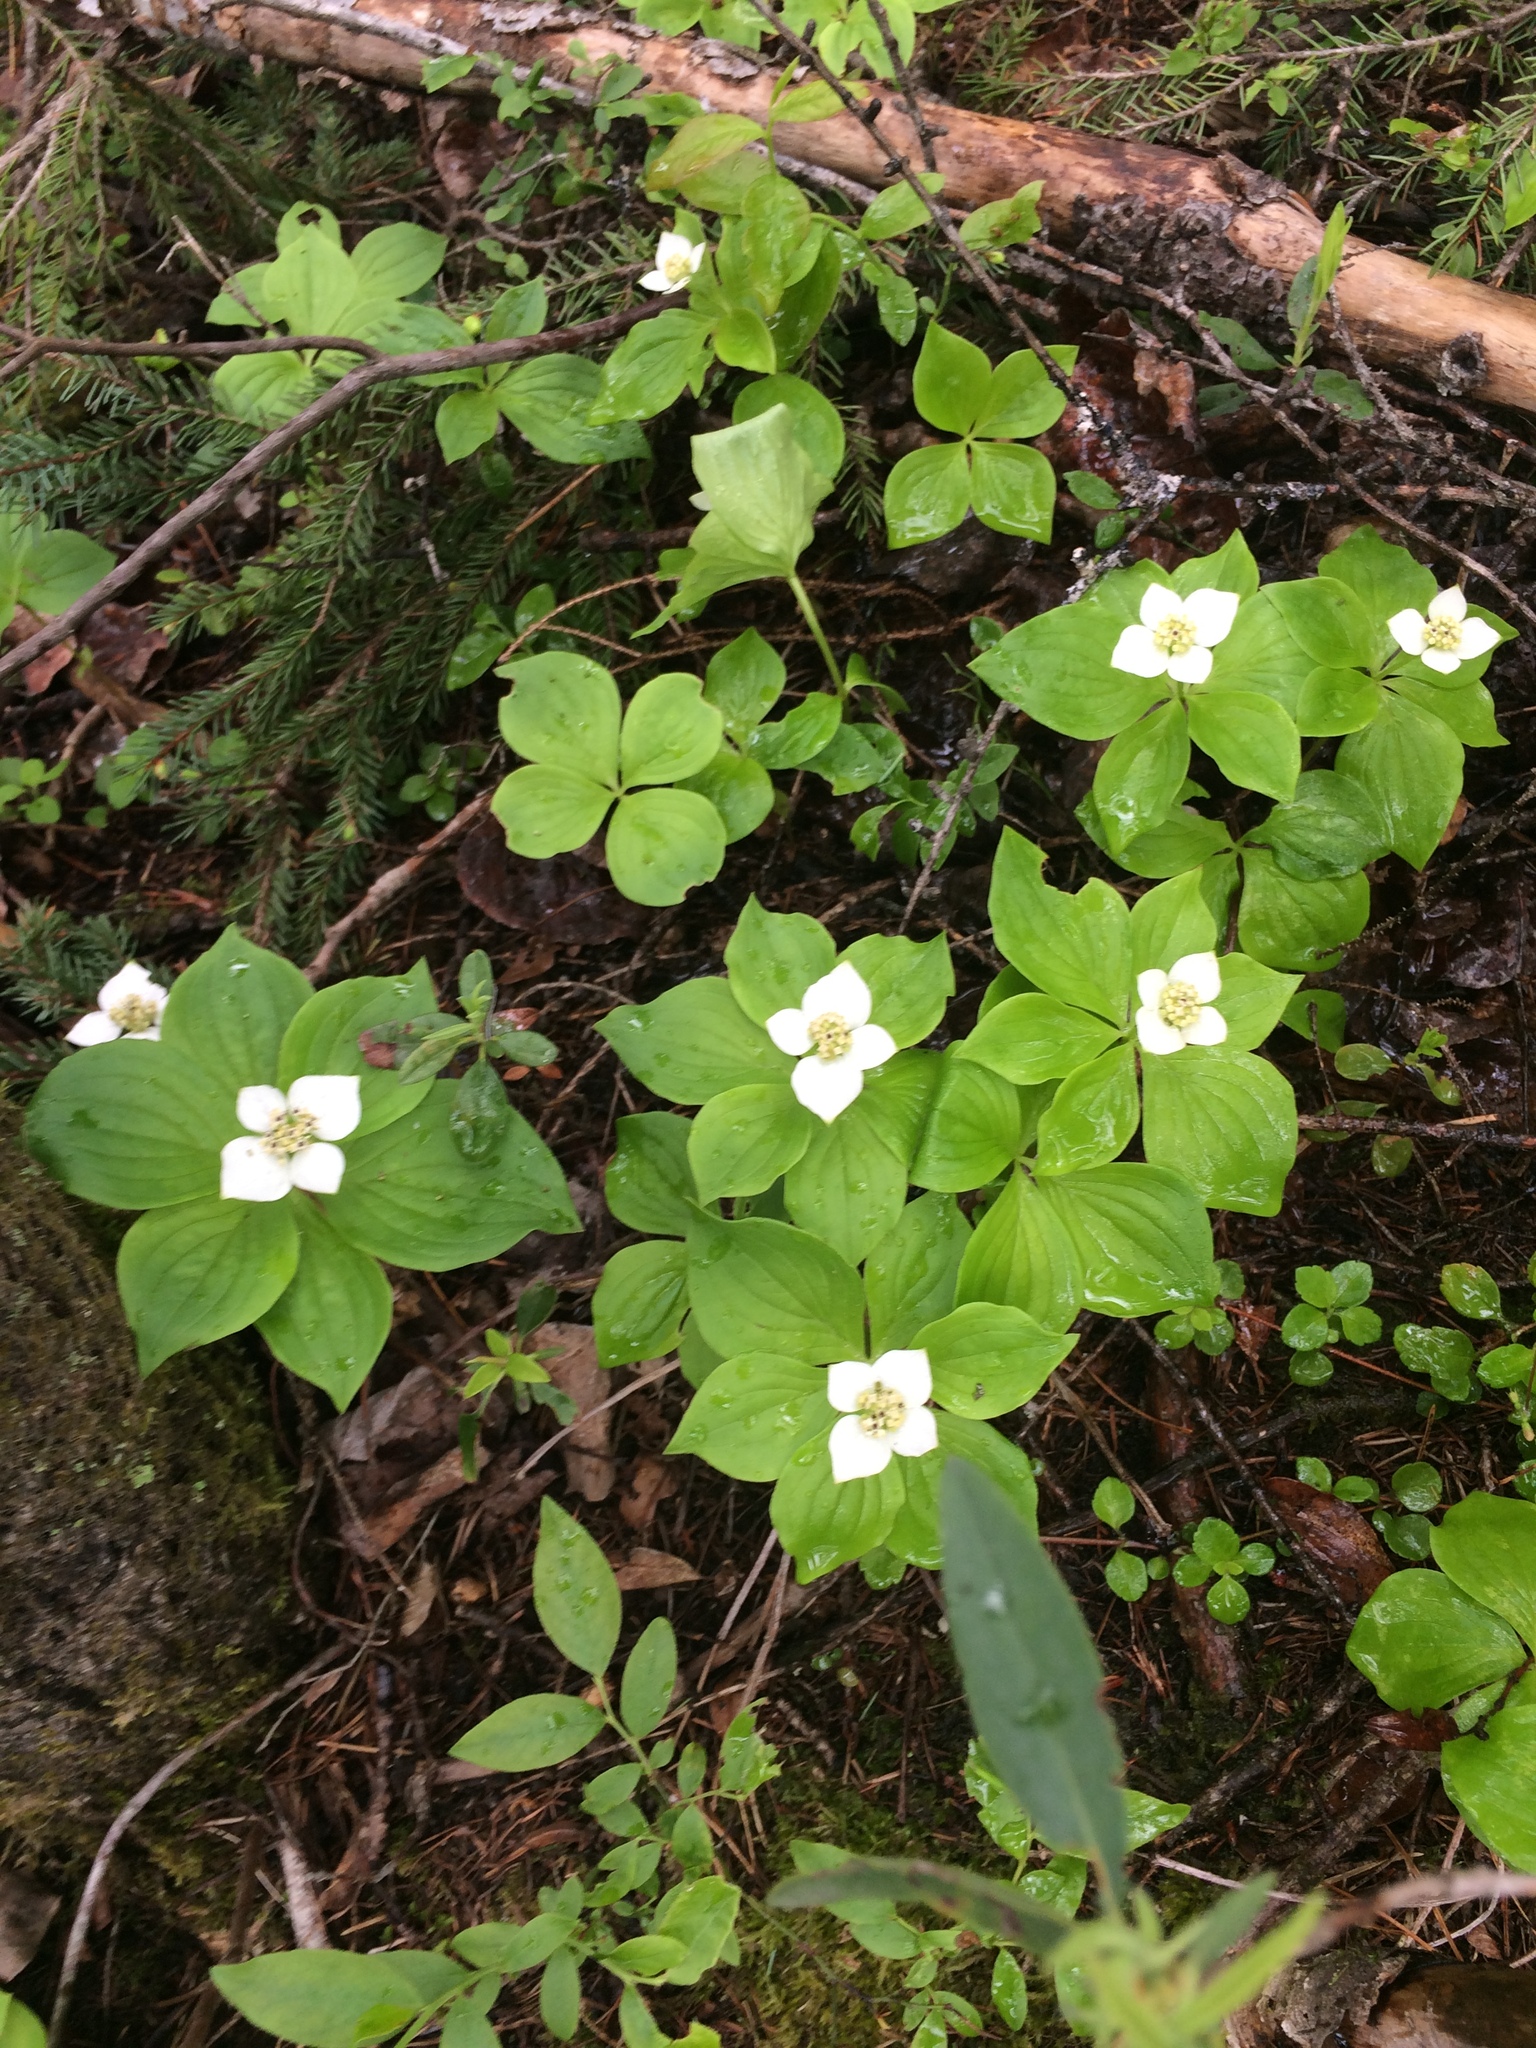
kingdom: Plantae
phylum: Tracheophyta
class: Magnoliopsida
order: Cornales
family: Cornaceae
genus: Cornus
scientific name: Cornus canadensis
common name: Creeping dogwood
